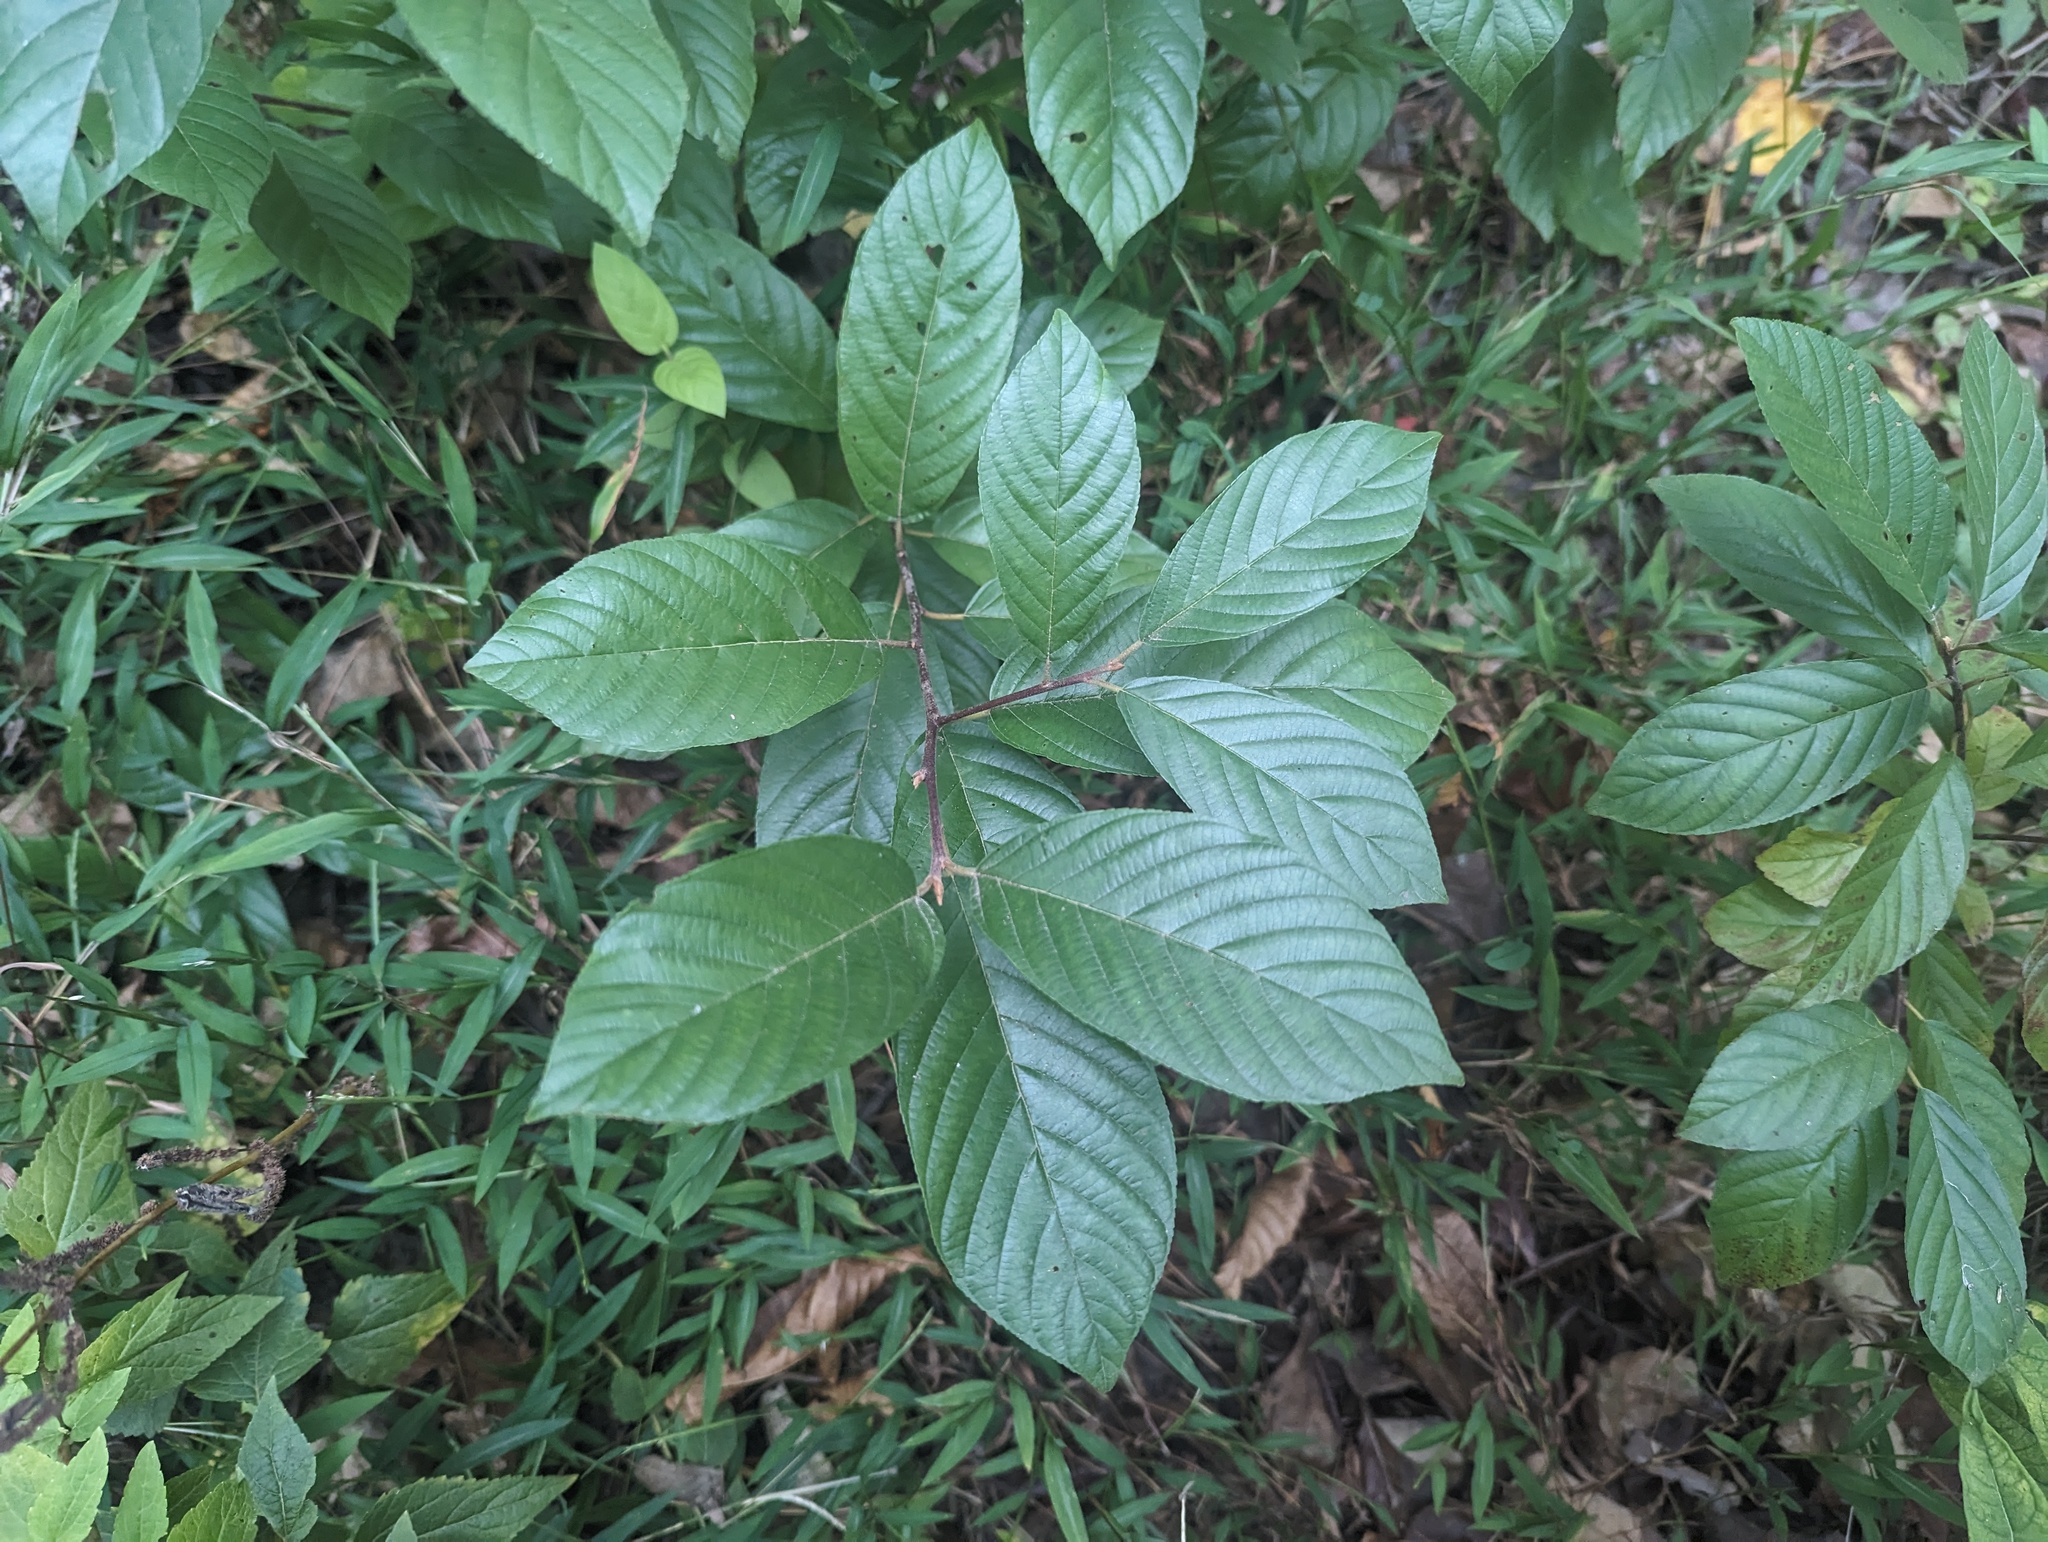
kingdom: Plantae
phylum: Tracheophyta
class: Magnoliopsida
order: Rosales
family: Rhamnaceae
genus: Frangula
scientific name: Frangula caroliniana
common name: Carolina buckthorn
